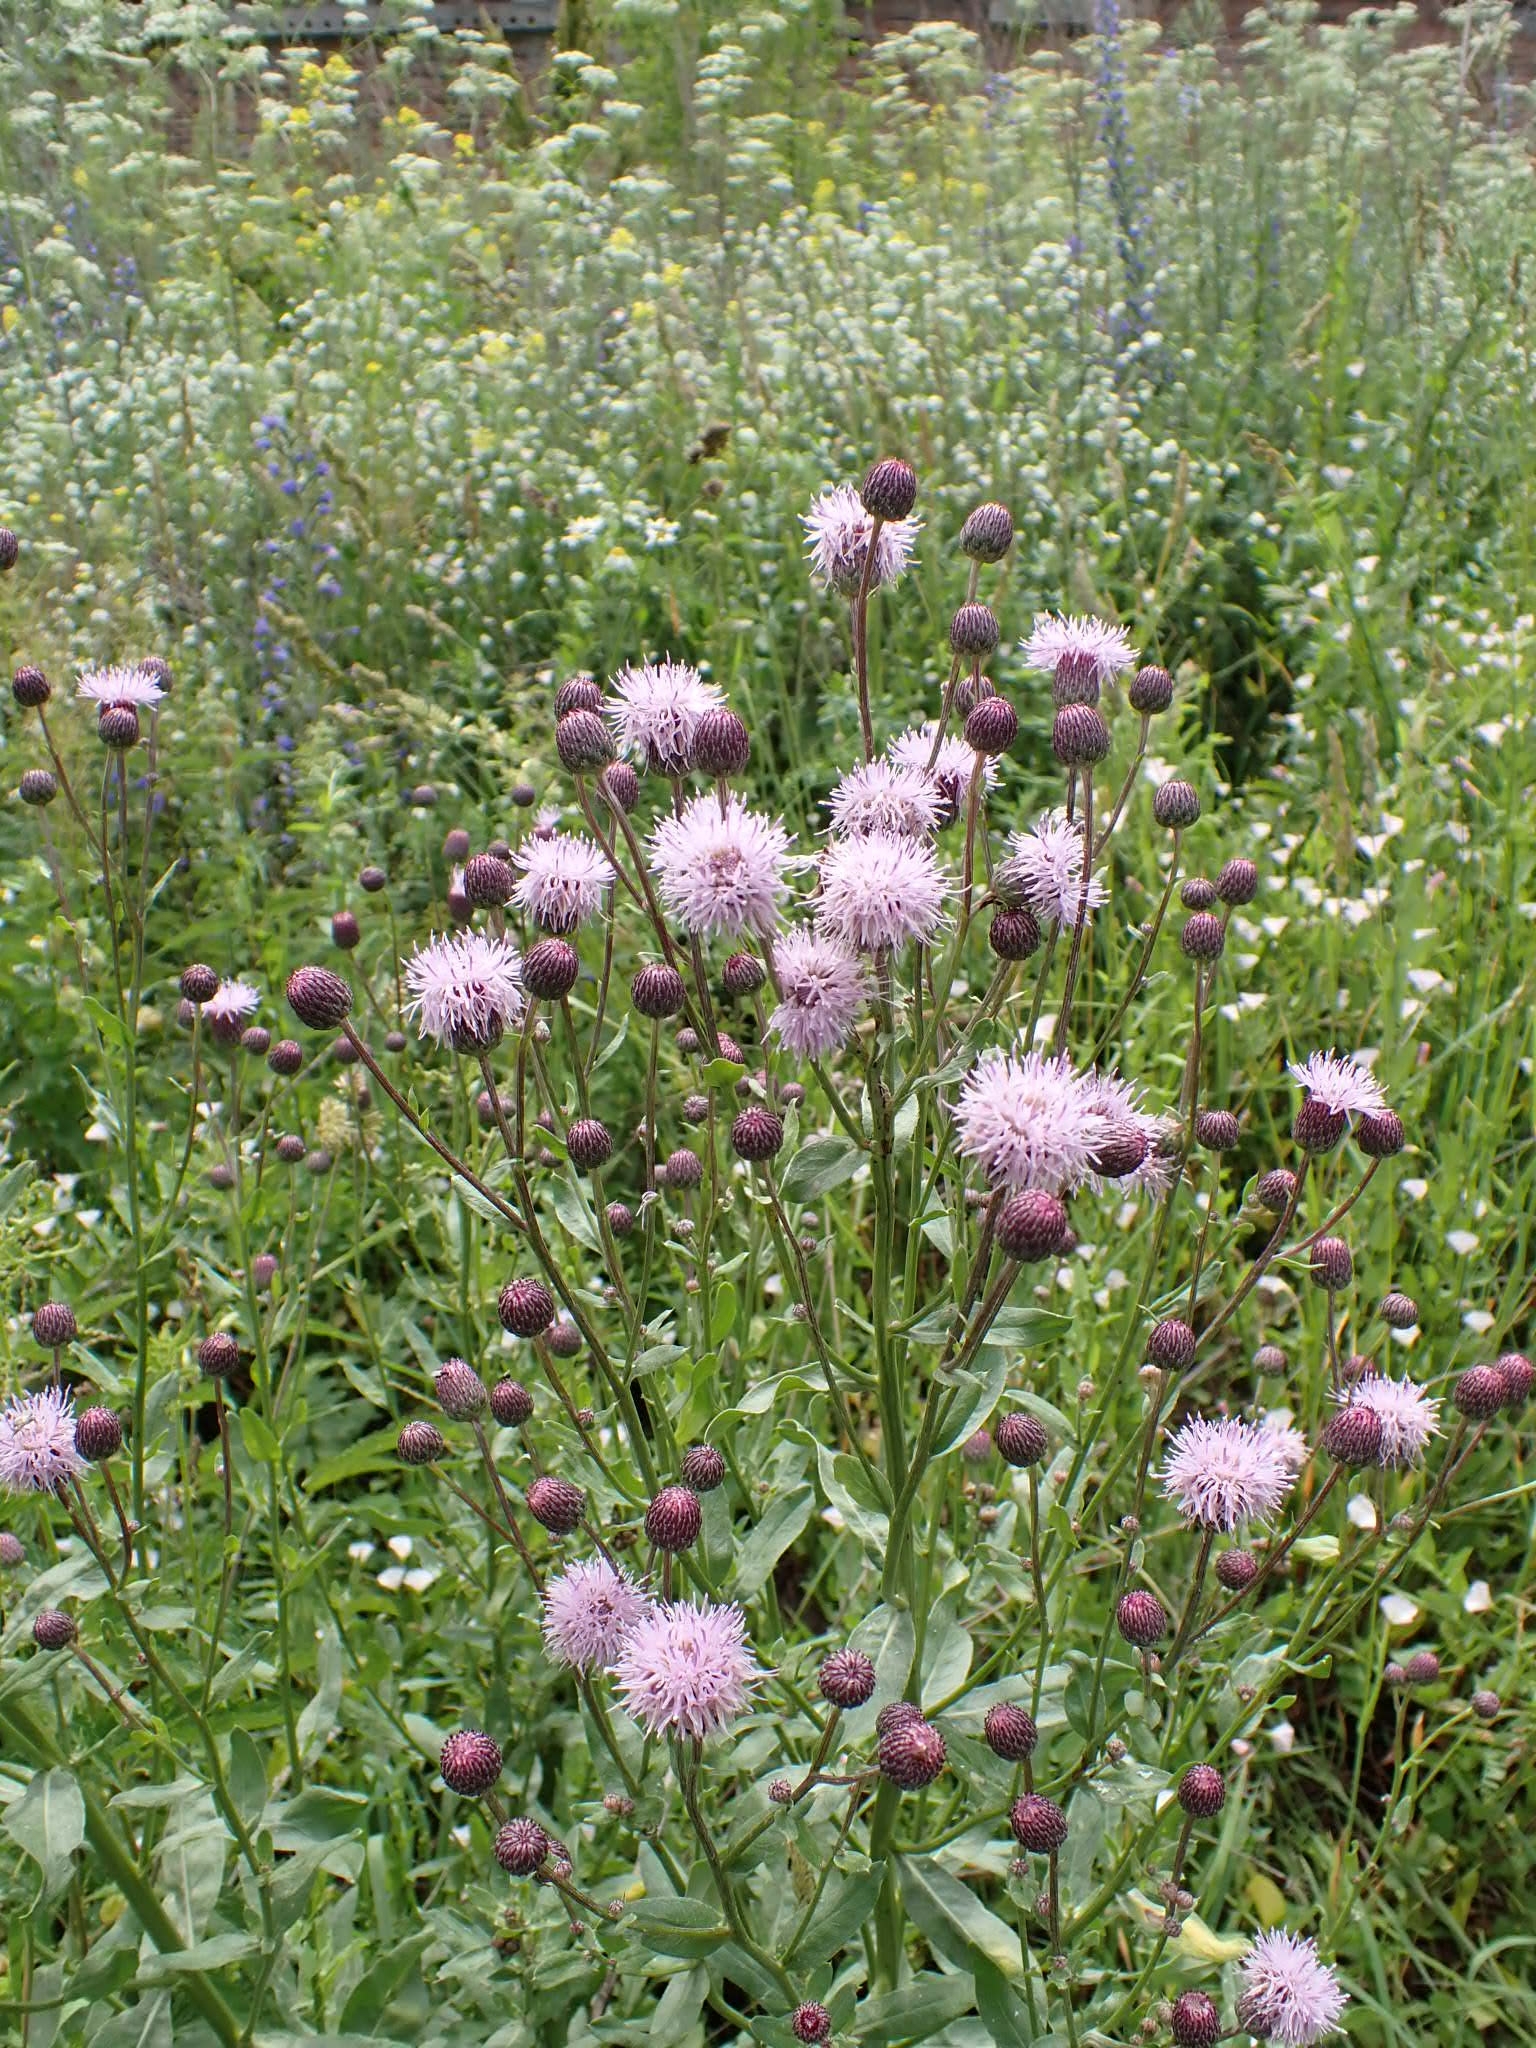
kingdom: Plantae
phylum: Tracheophyta
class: Magnoliopsida
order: Asterales
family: Asteraceae
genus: Cirsium
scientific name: Cirsium arvense
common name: Creeping thistle
